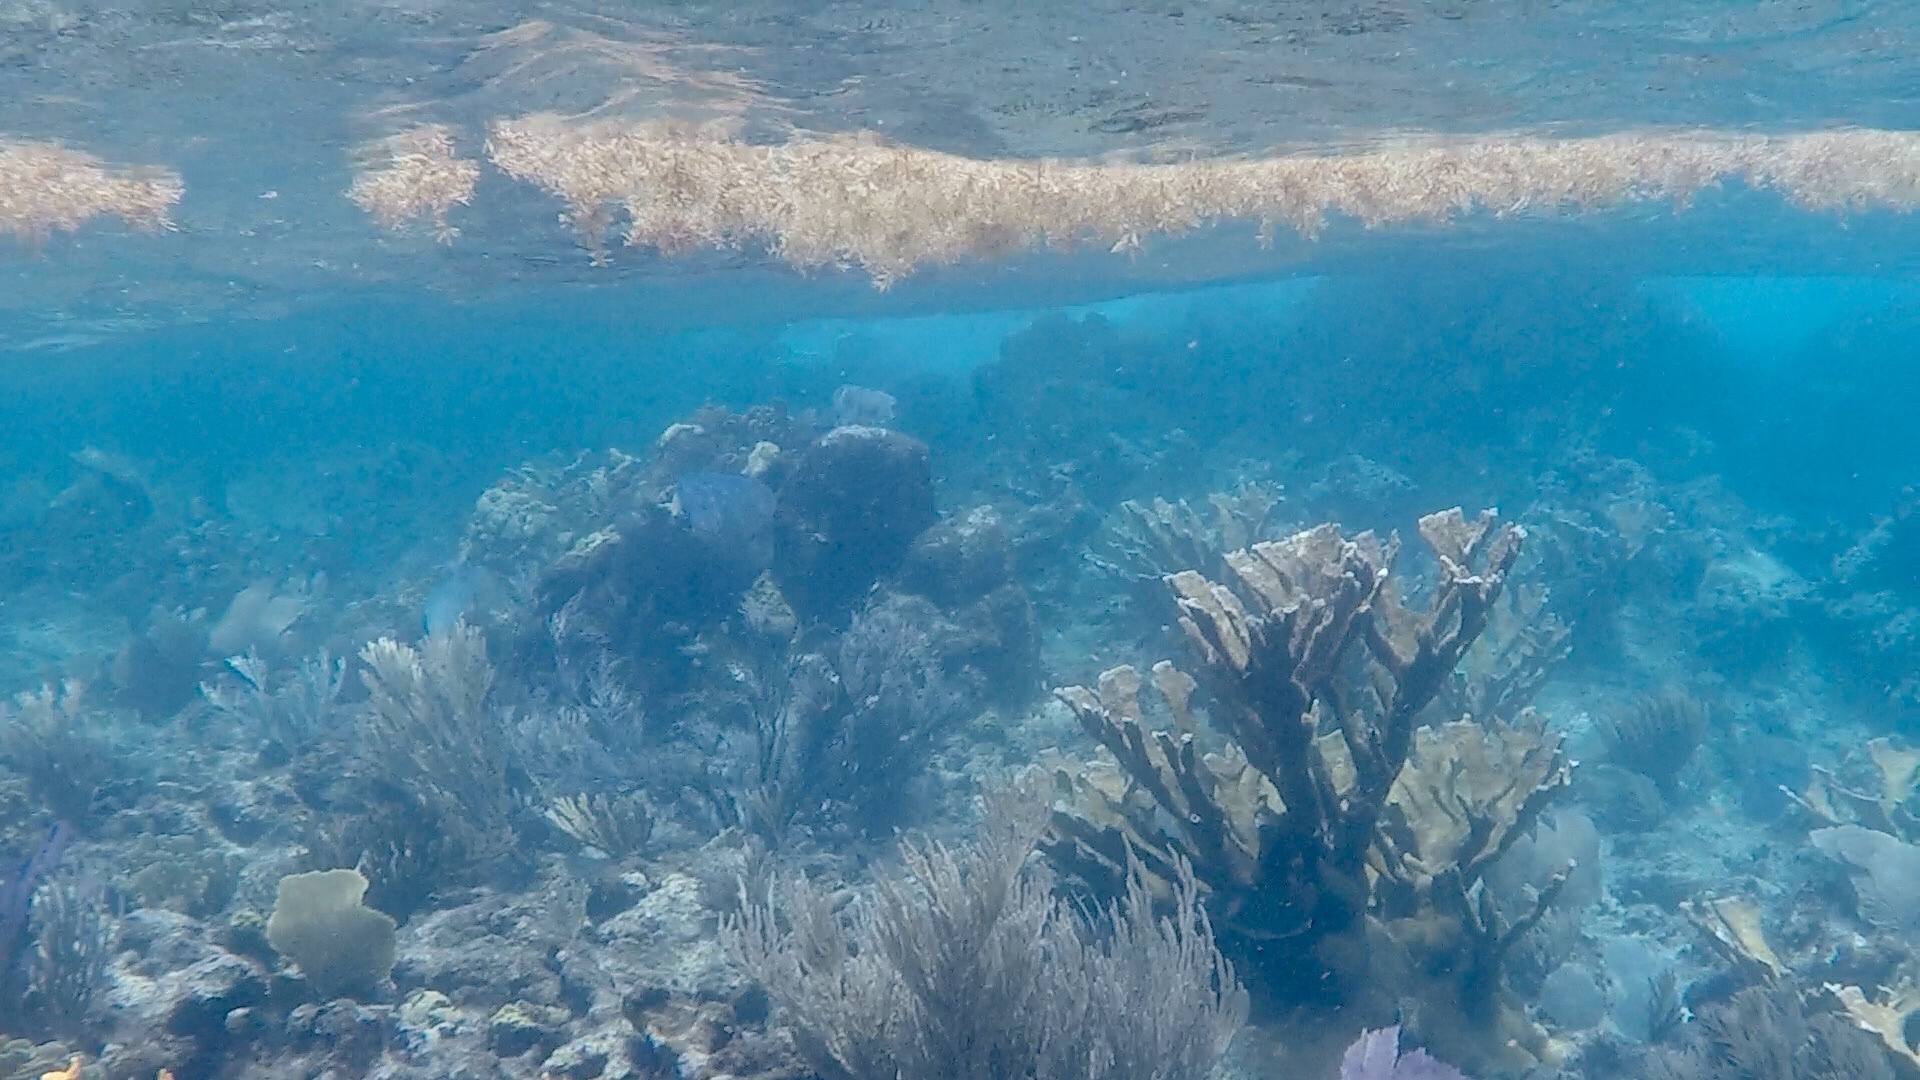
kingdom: Animalia
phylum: Cnidaria
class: Anthozoa
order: Scleractinia
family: Acroporidae
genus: Acropora
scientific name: Acropora palmata
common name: Elkhorn coral
